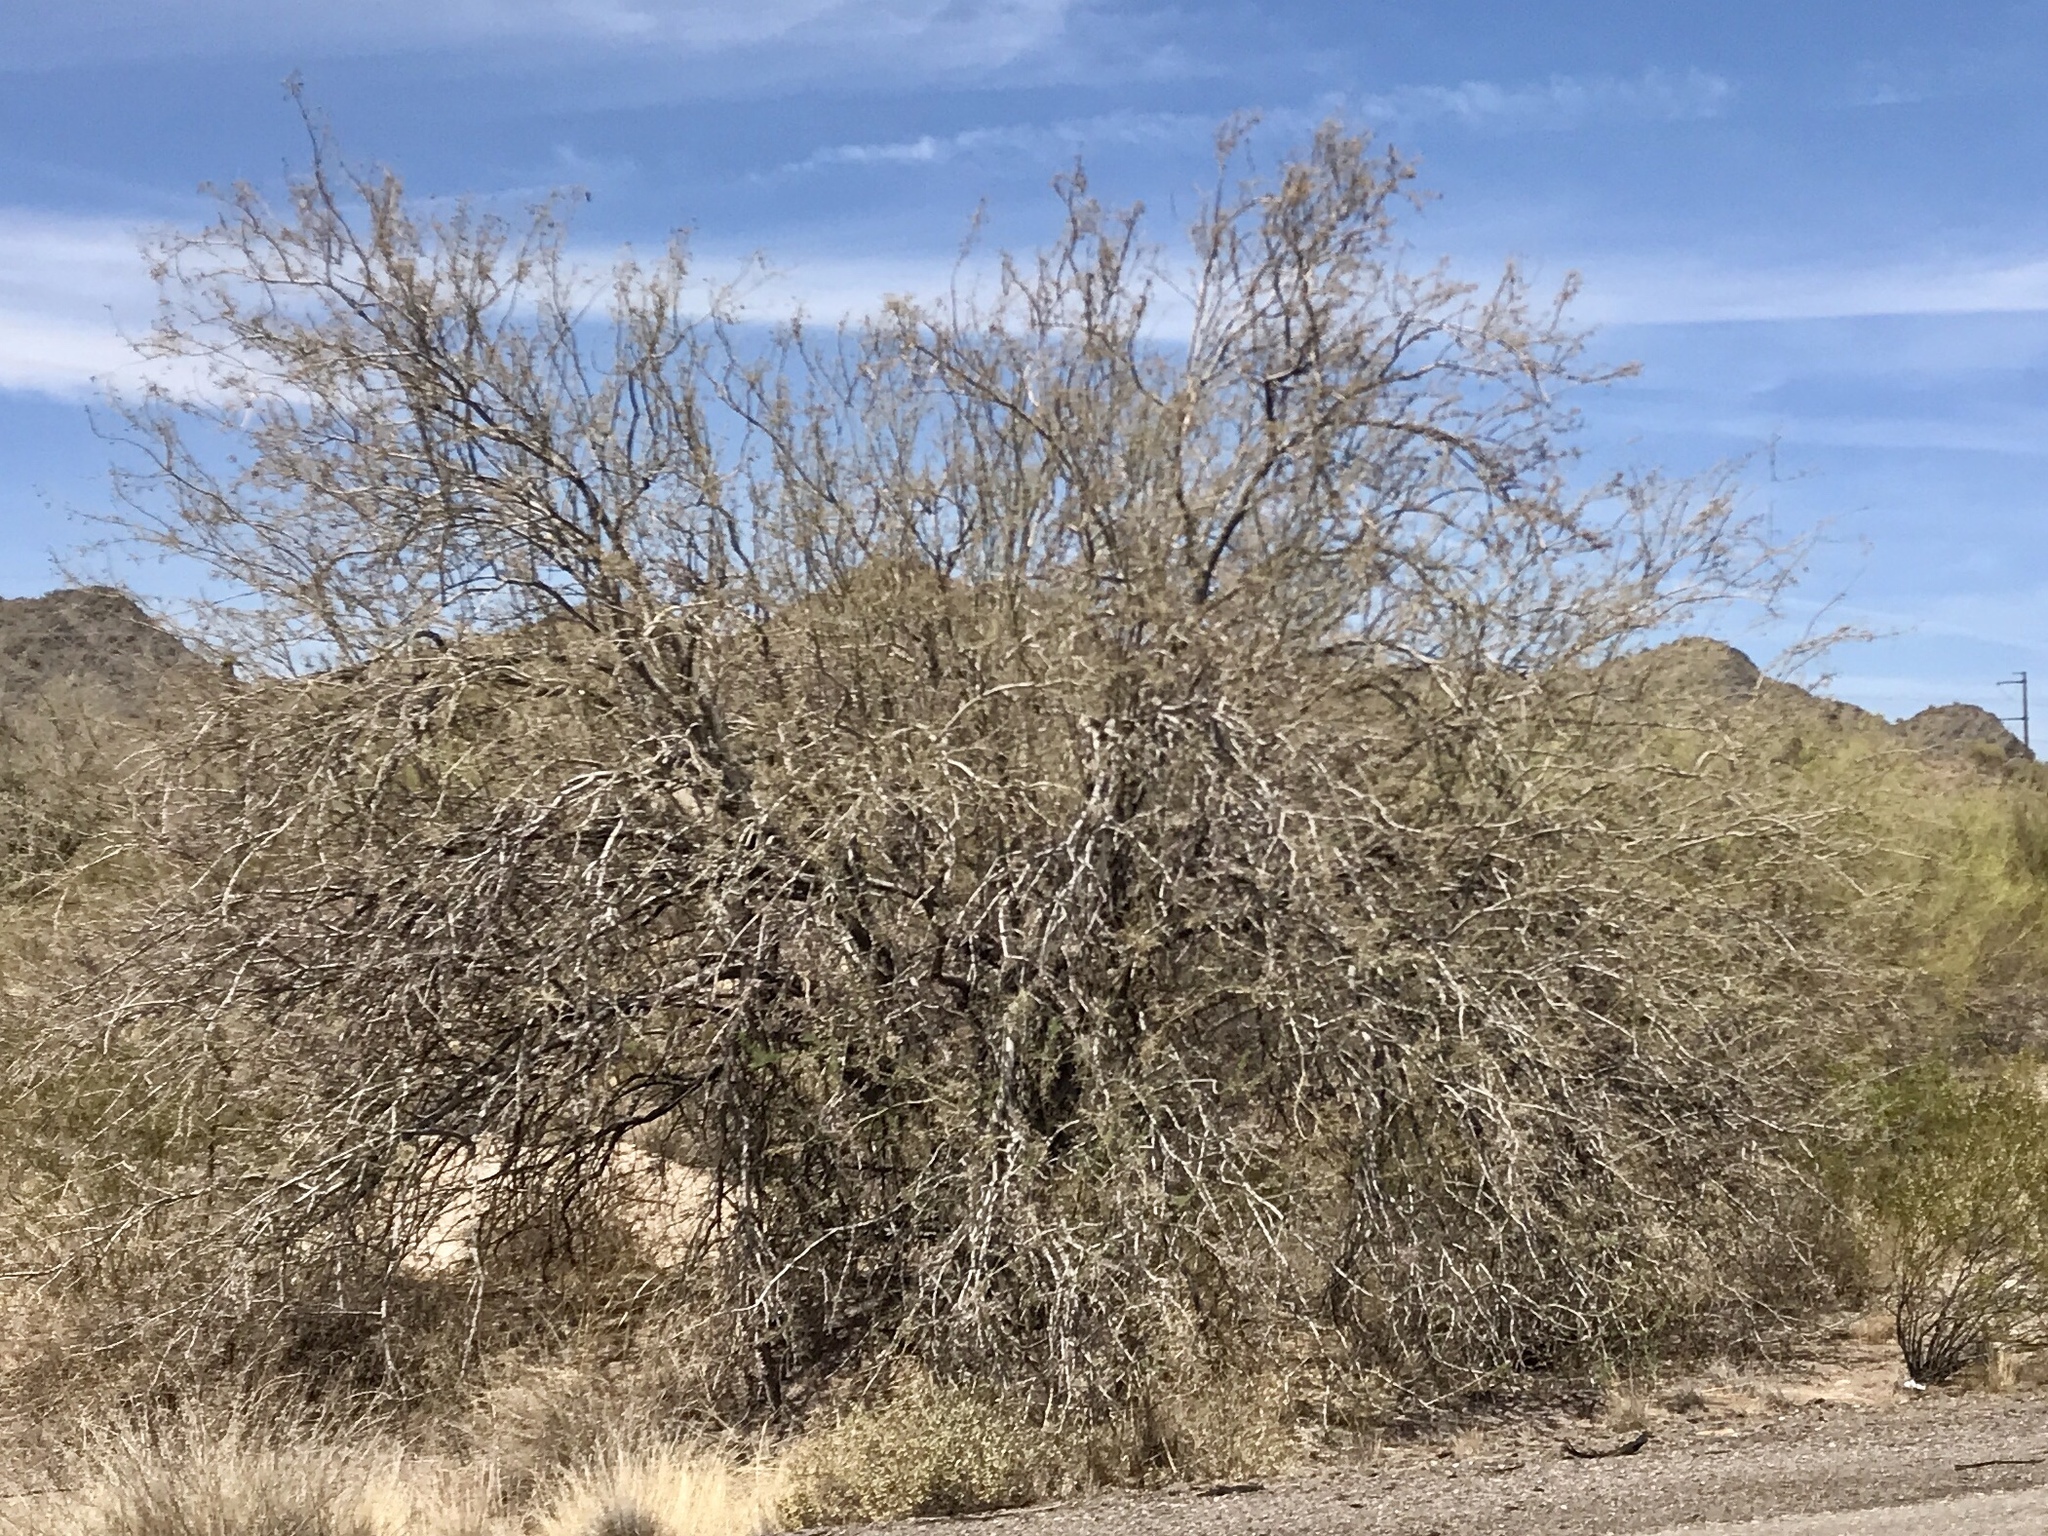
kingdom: Plantae
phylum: Tracheophyta
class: Magnoliopsida
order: Fabales
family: Fabaceae
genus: Olneya
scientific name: Olneya tesota
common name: Desert ironwood
